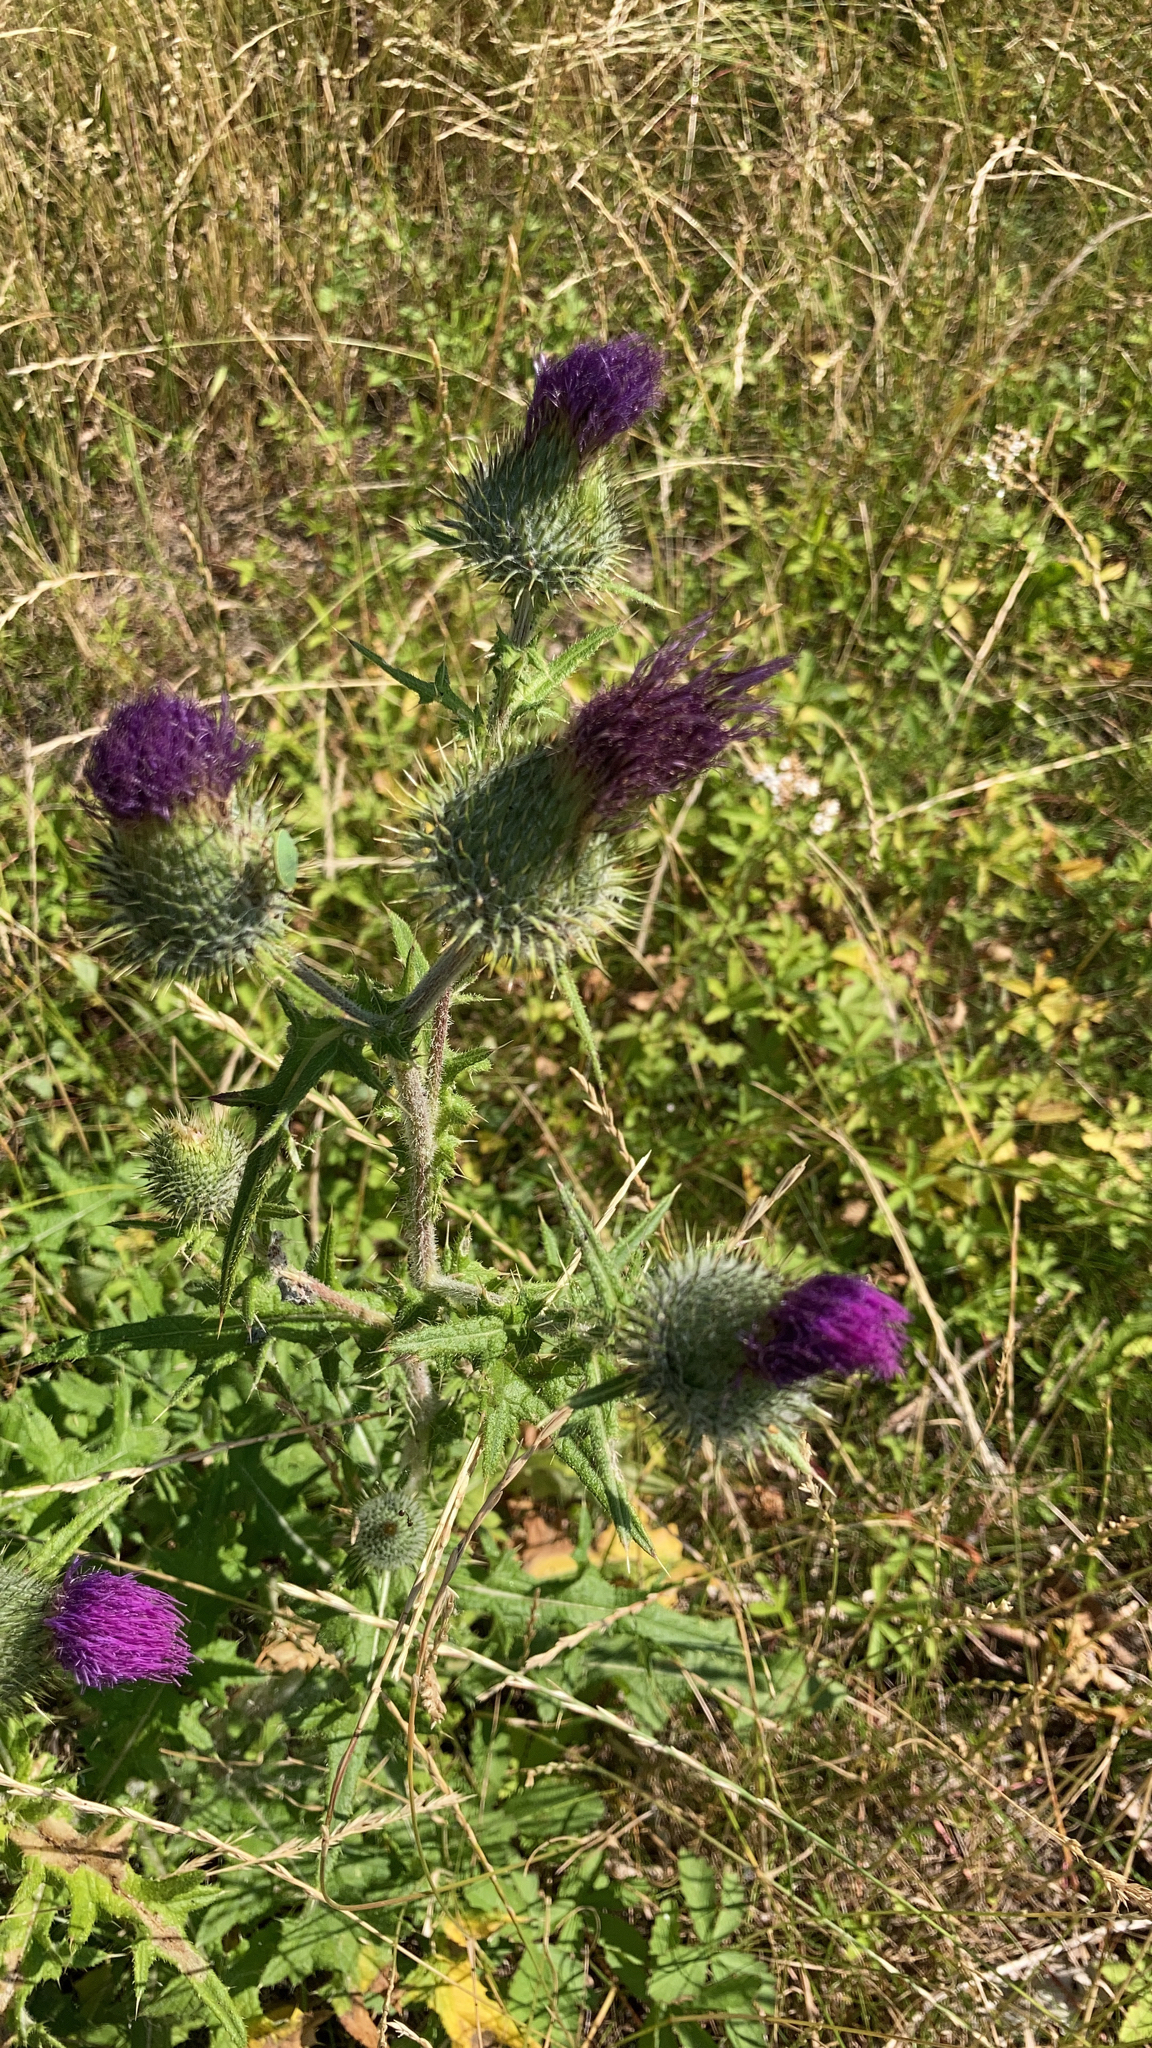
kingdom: Plantae
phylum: Tracheophyta
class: Magnoliopsida
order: Asterales
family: Asteraceae
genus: Cirsium
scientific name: Cirsium vulgare
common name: Bull thistle
